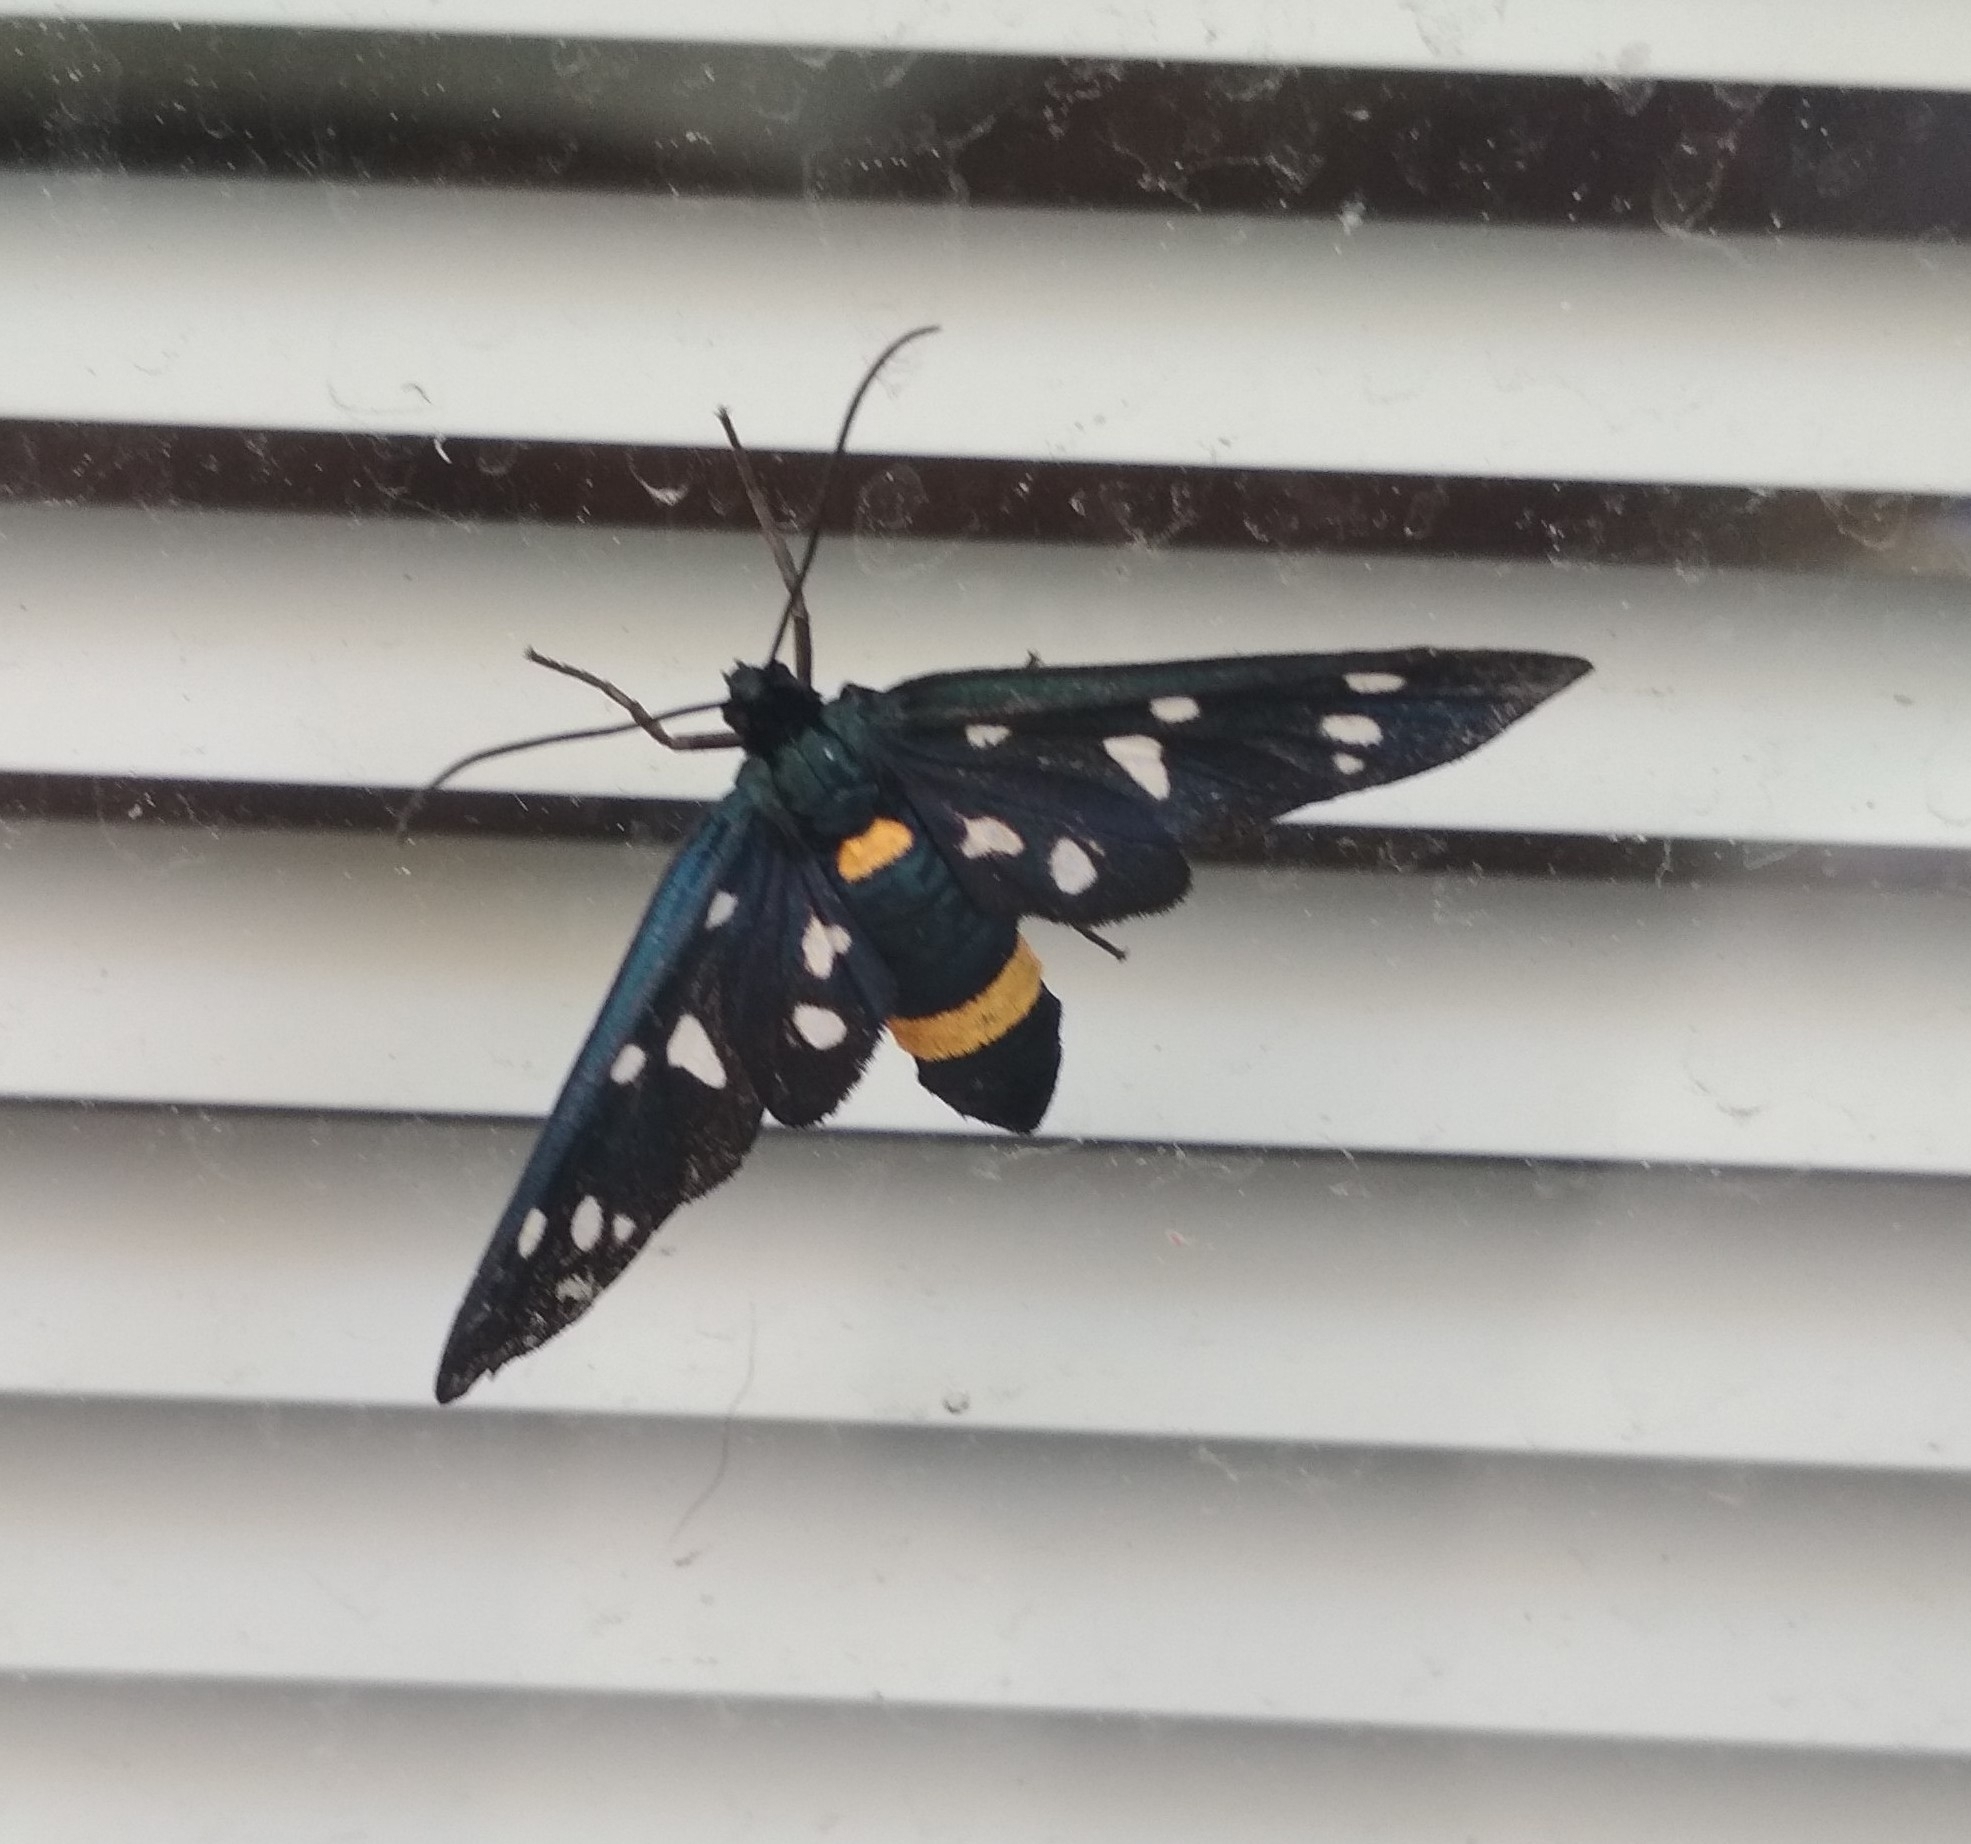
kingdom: Animalia
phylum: Arthropoda
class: Insecta
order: Lepidoptera
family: Erebidae
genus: Amata
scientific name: Amata phegea
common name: Nine-spotted
